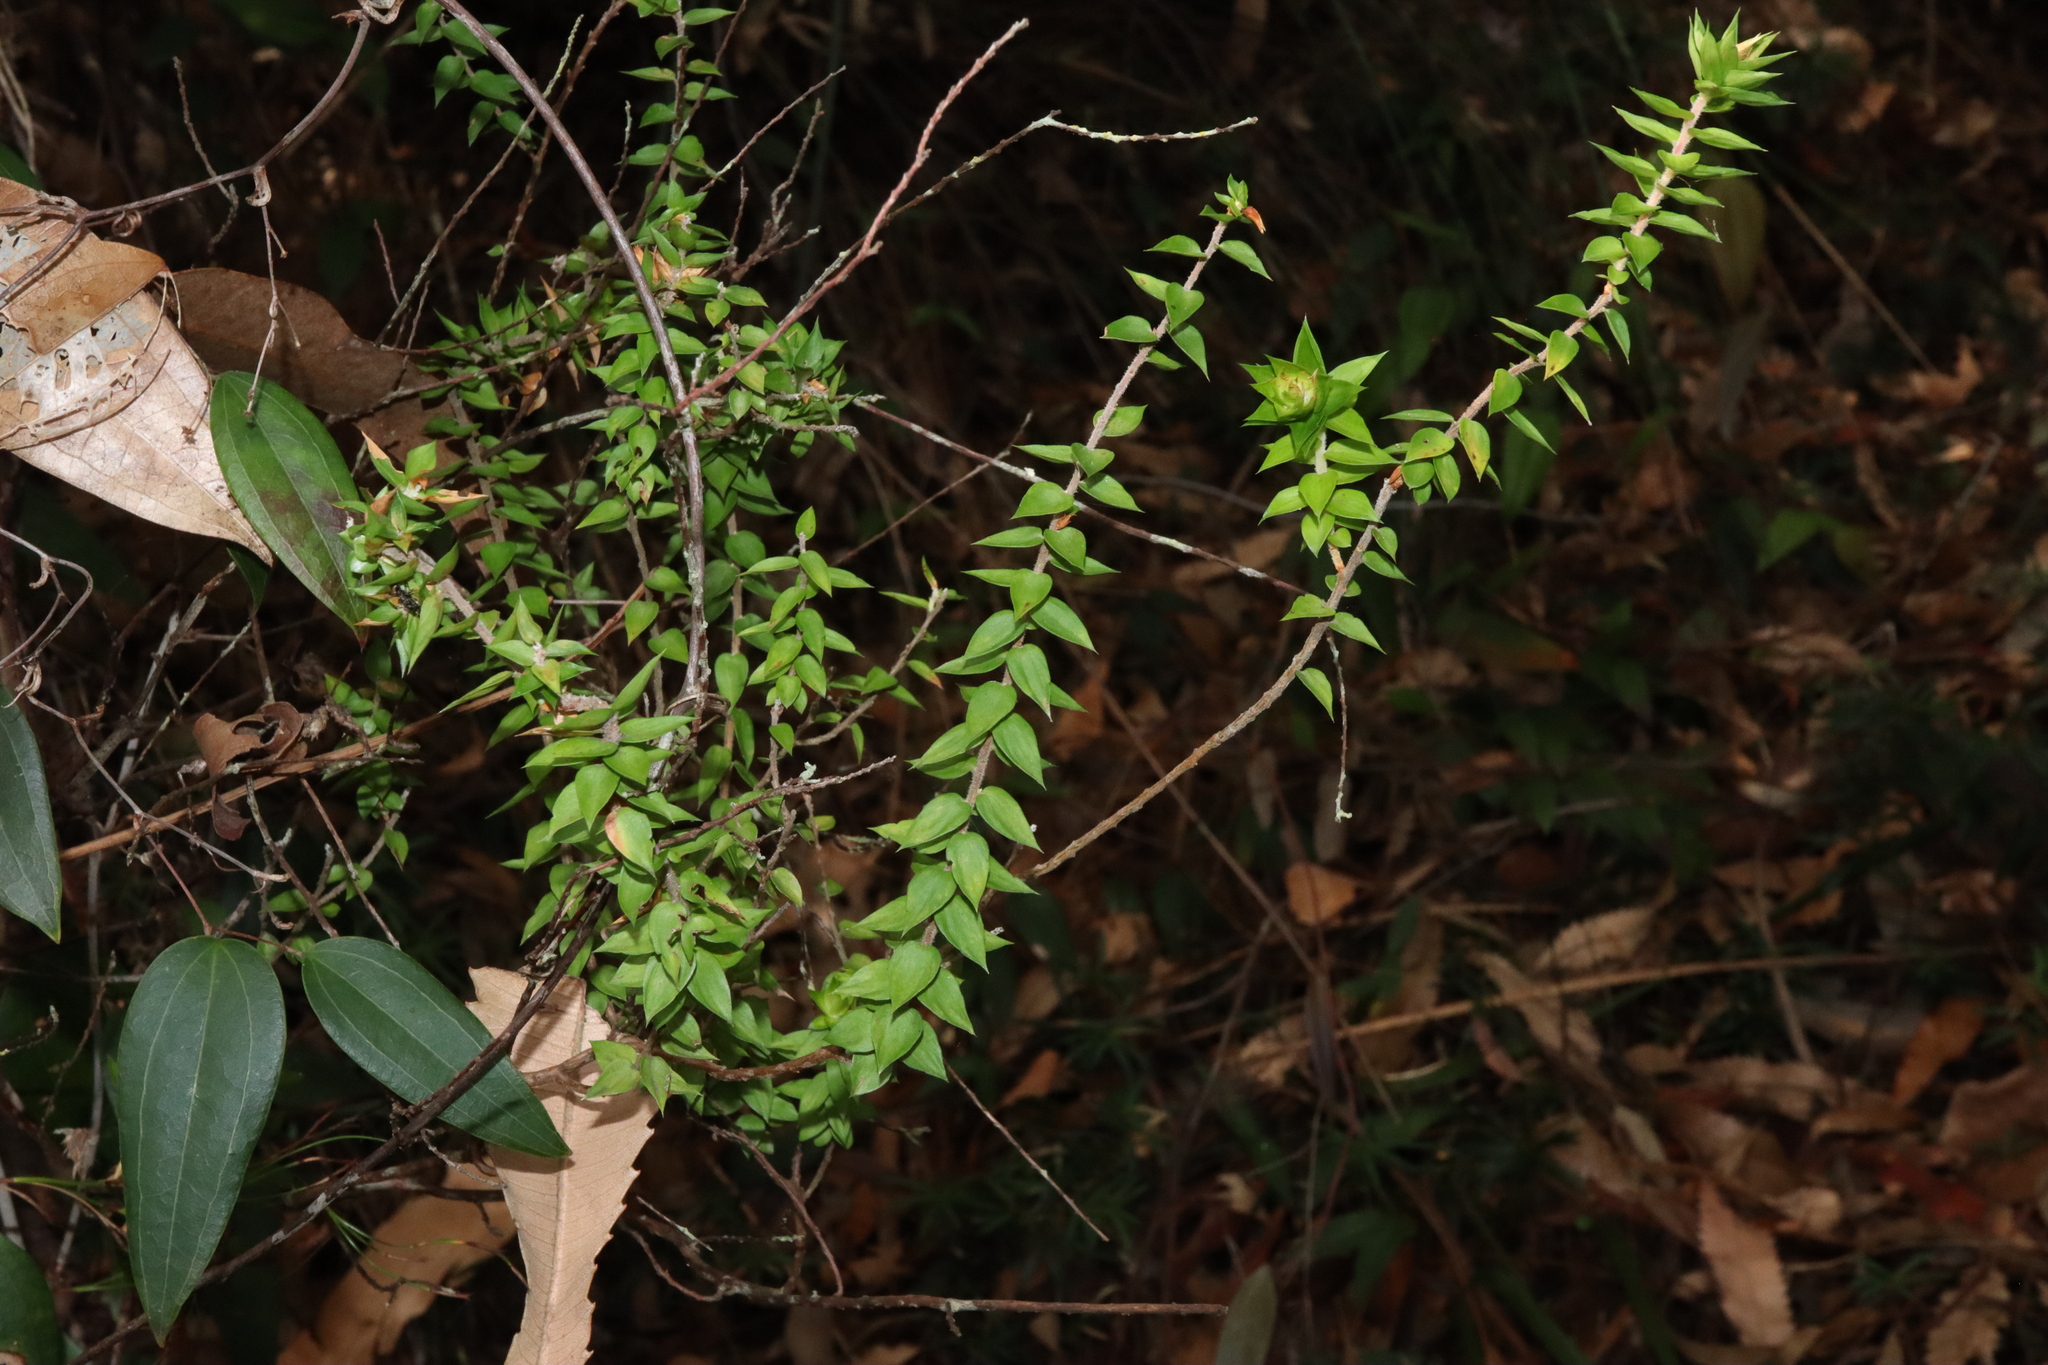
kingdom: Plantae
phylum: Tracheophyta
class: Magnoliopsida
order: Ericales
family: Ericaceae
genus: Epacris
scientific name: Epacris longiflora
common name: Fuchsia-heath
